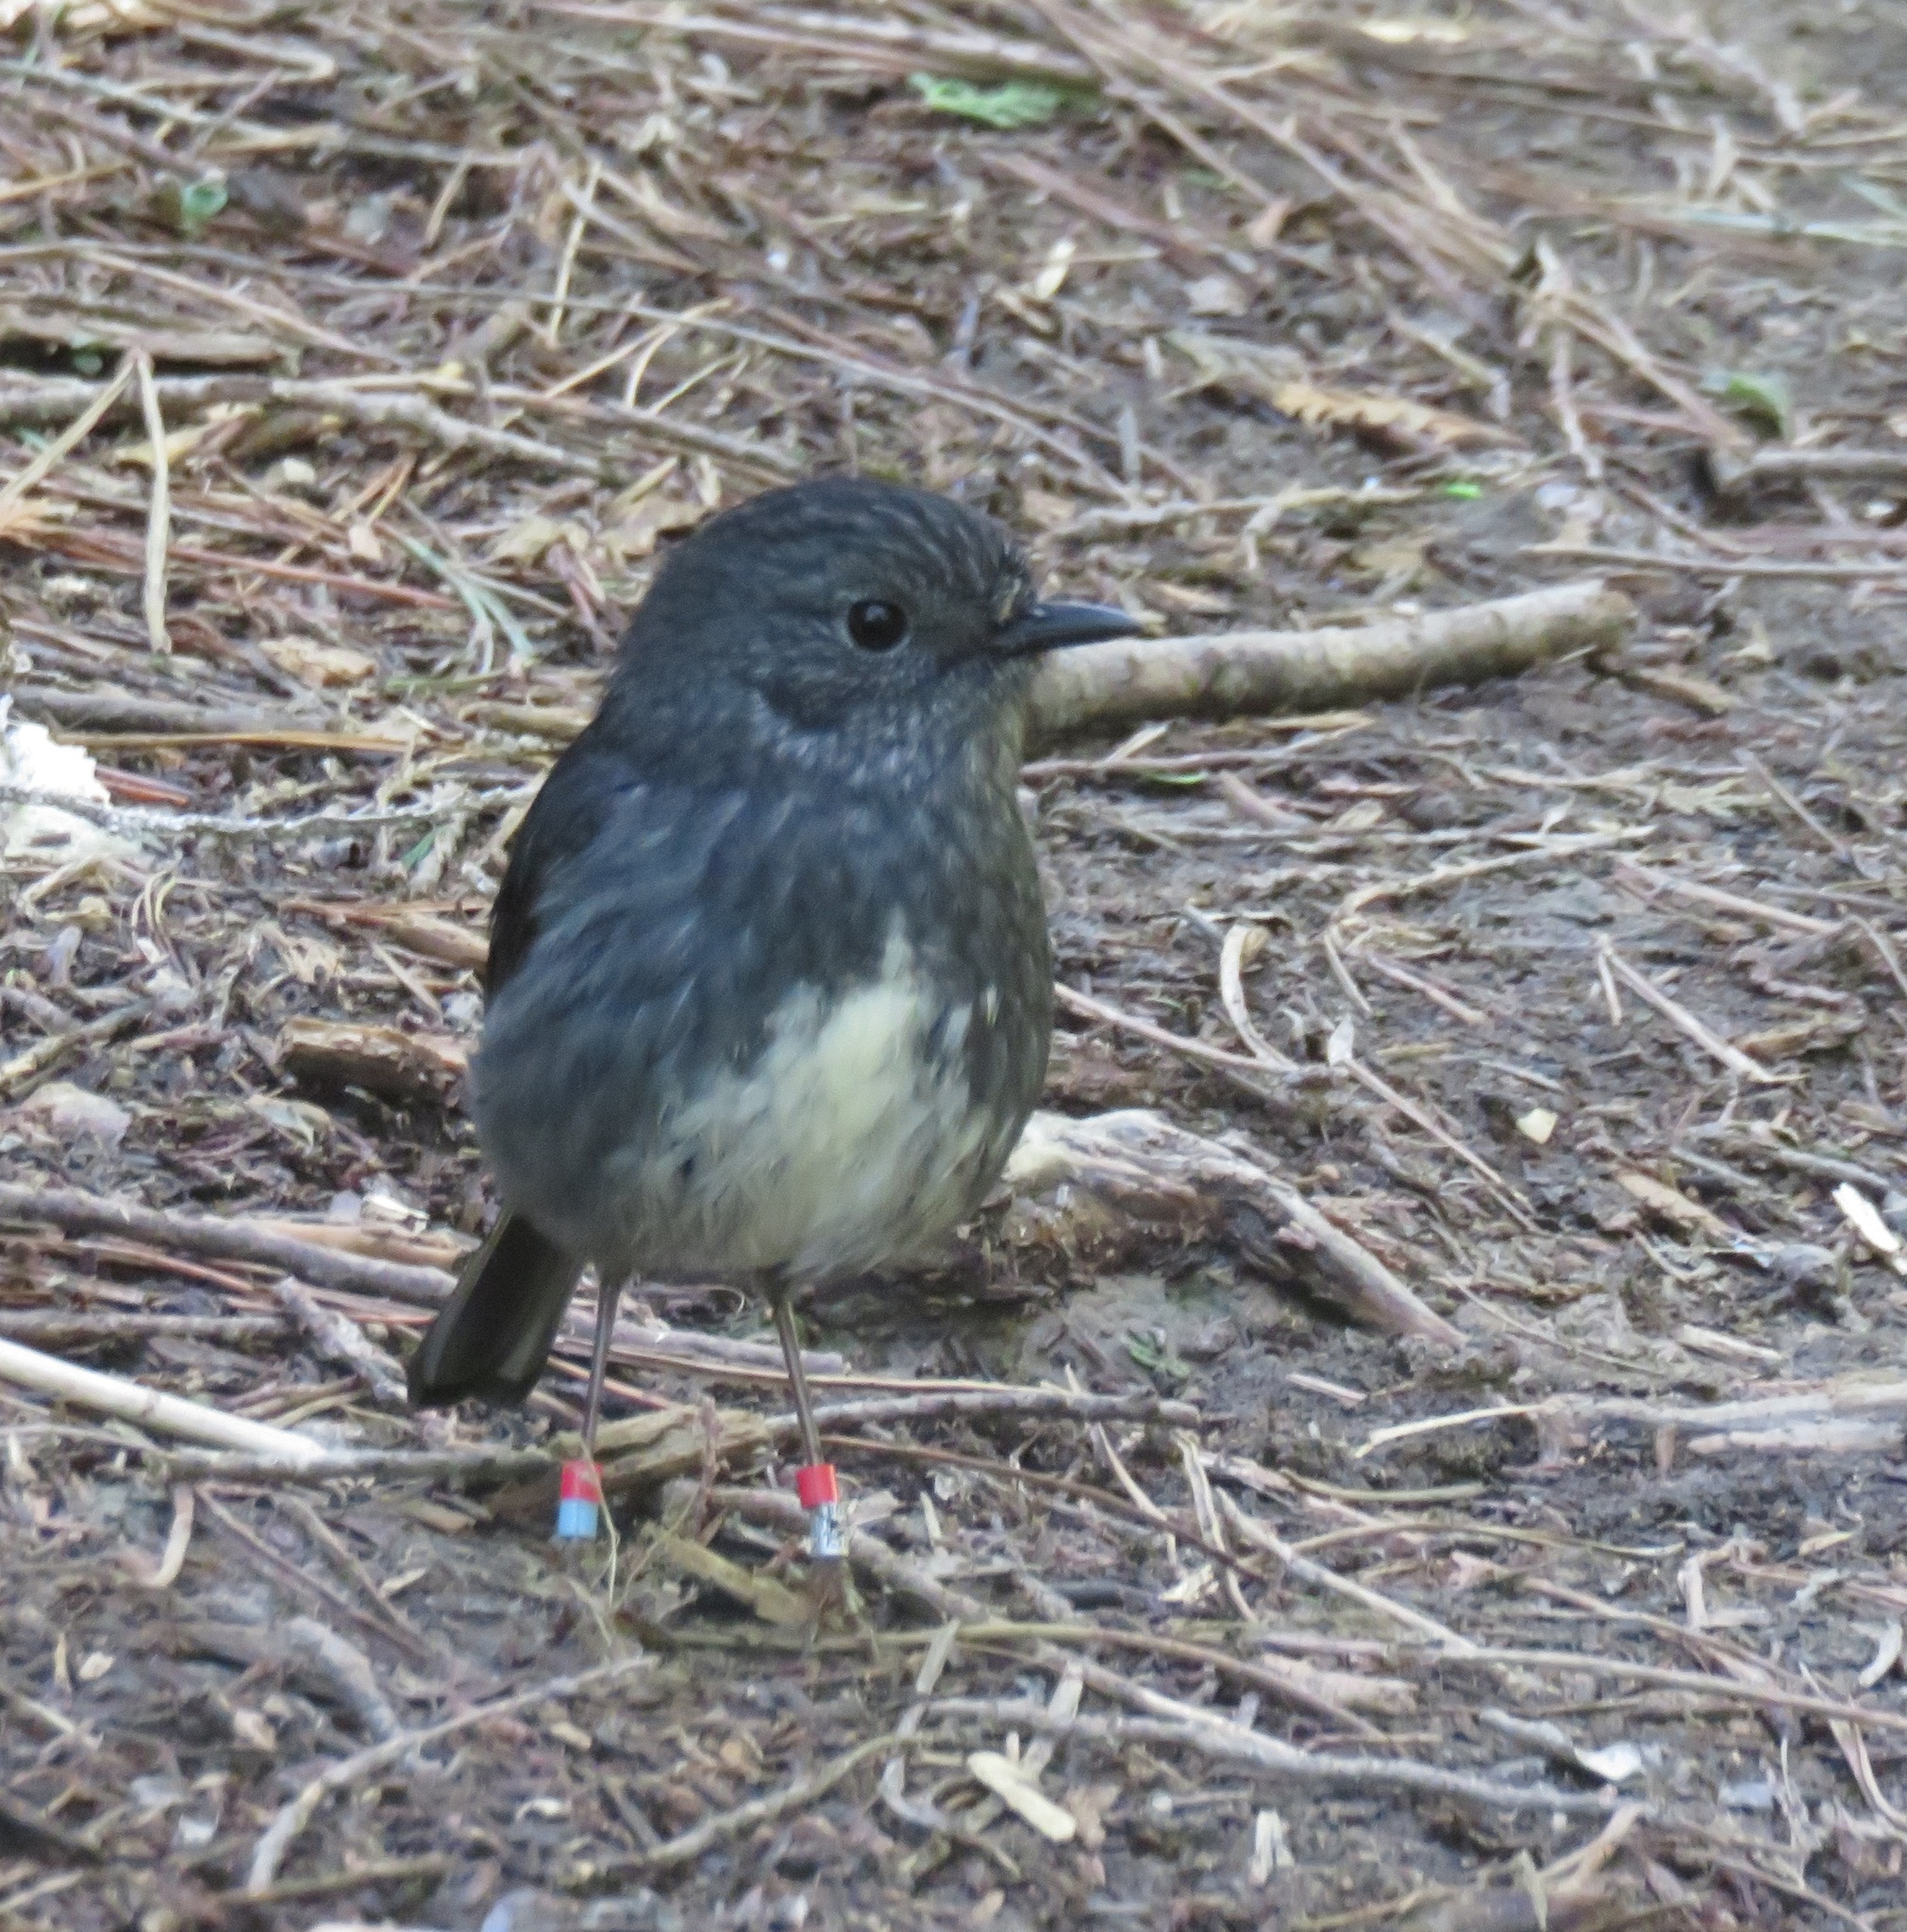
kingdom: Animalia
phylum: Chordata
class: Aves
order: Passeriformes
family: Petroicidae
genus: Petroica
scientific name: Petroica australis
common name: New zealand robin
